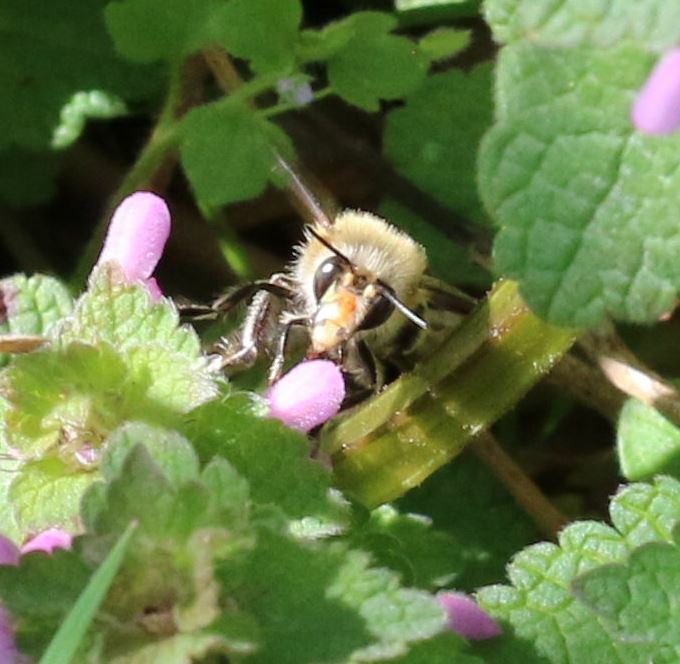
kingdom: Animalia
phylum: Arthropoda
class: Insecta
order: Hymenoptera
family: Apidae
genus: Anthophora
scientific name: Anthophora plumipes
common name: Hairy-footed flower bee
